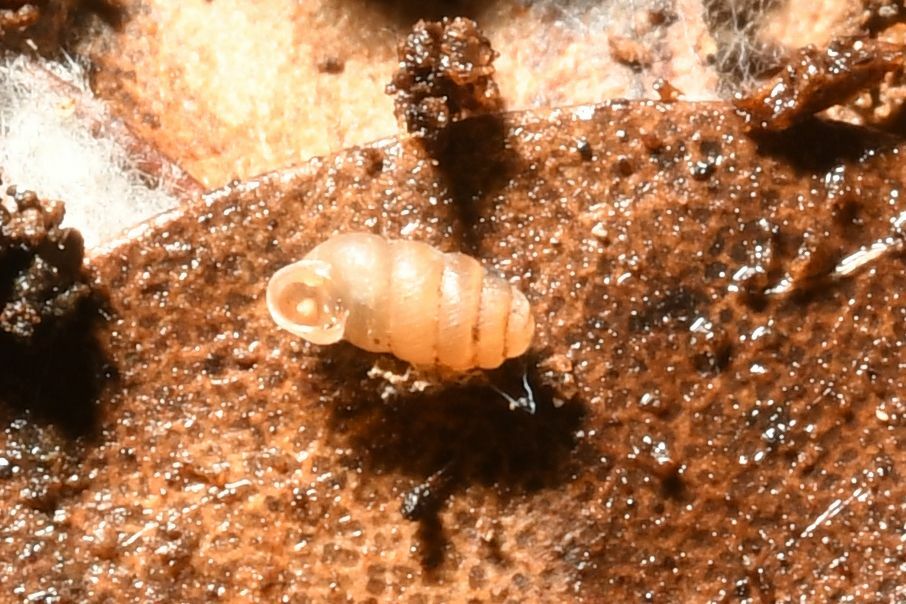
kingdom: Animalia
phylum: Mollusca
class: Gastropoda
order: Stylommatophora
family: Truncatellinidae
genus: Truncatellina
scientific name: Truncatellina callicratis
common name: Southern whorl snail
